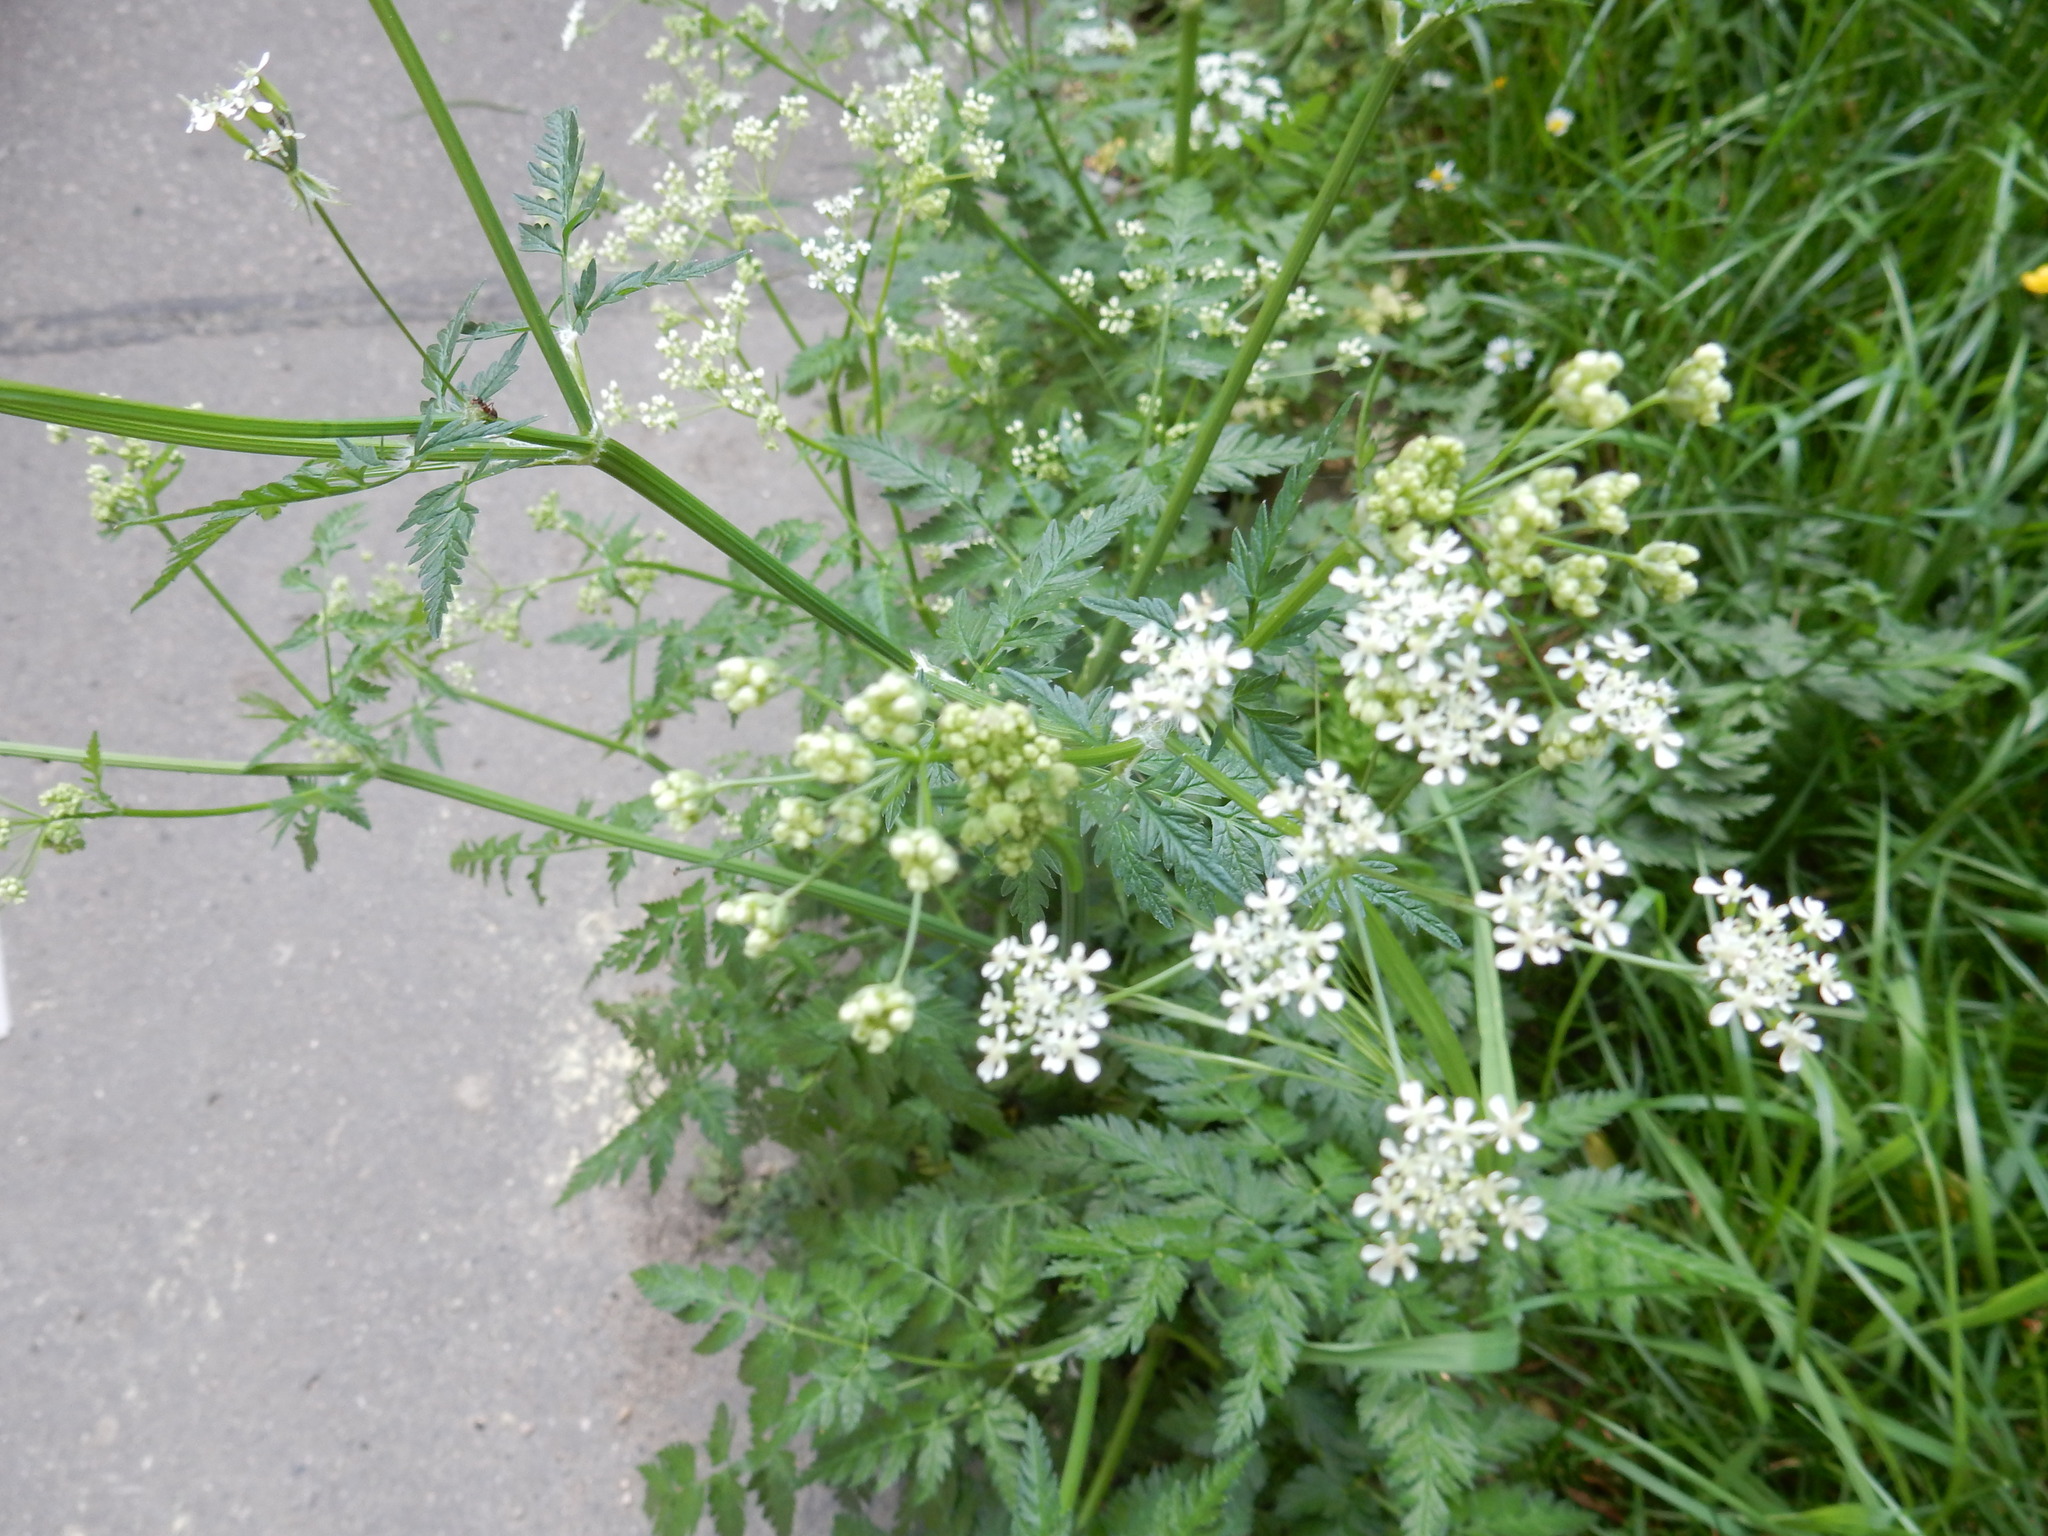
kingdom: Plantae
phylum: Tracheophyta
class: Magnoliopsida
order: Apiales
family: Apiaceae
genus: Anthriscus
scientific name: Anthriscus sylvestris
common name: Cow parsley
